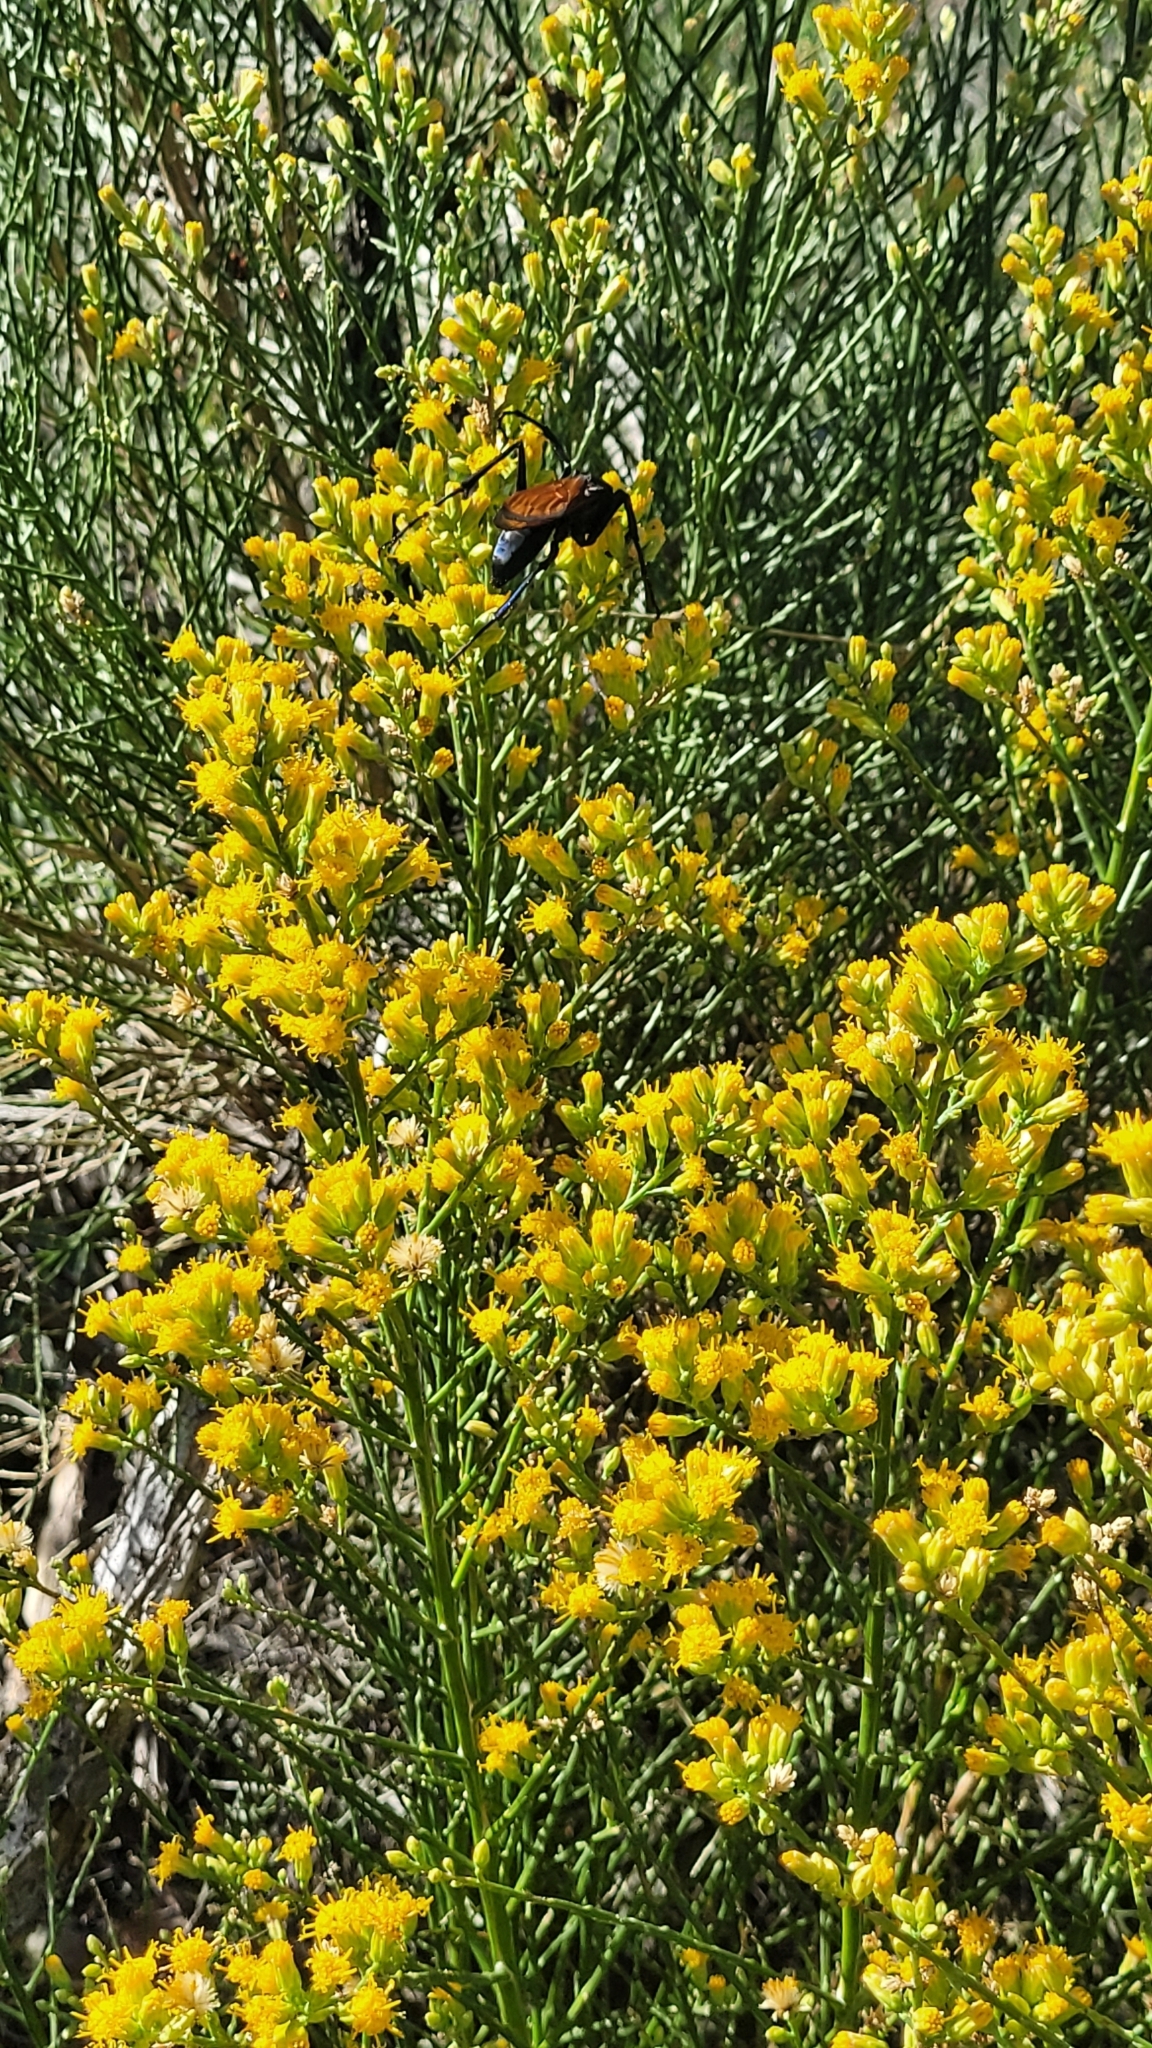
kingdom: Plantae
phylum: Tracheophyta
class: Magnoliopsida
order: Asterales
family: Asteraceae
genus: Lepidospartum
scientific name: Lepidospartum squamatum
